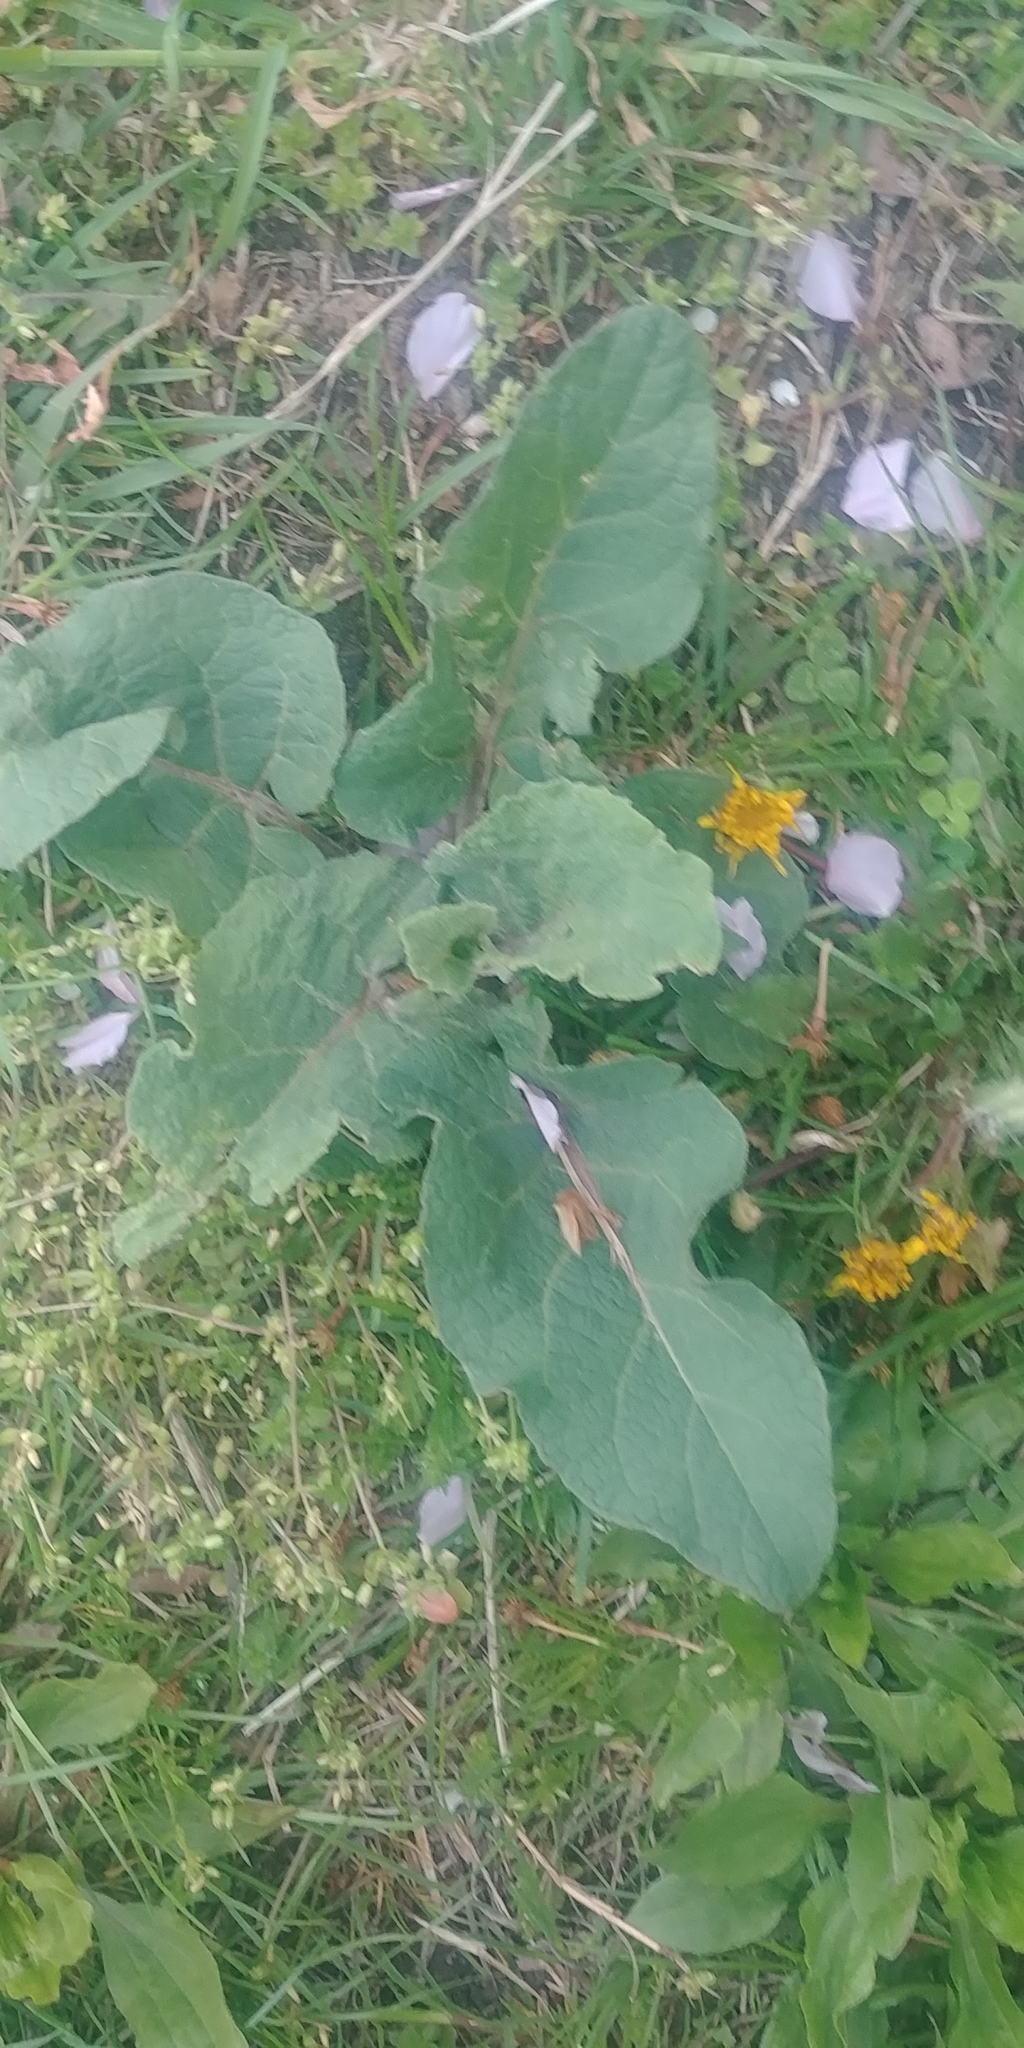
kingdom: Plantae
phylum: Tracheophyta
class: Magnoliopsida
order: Asterales
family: Asteraceae
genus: Arctium
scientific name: Arctium
